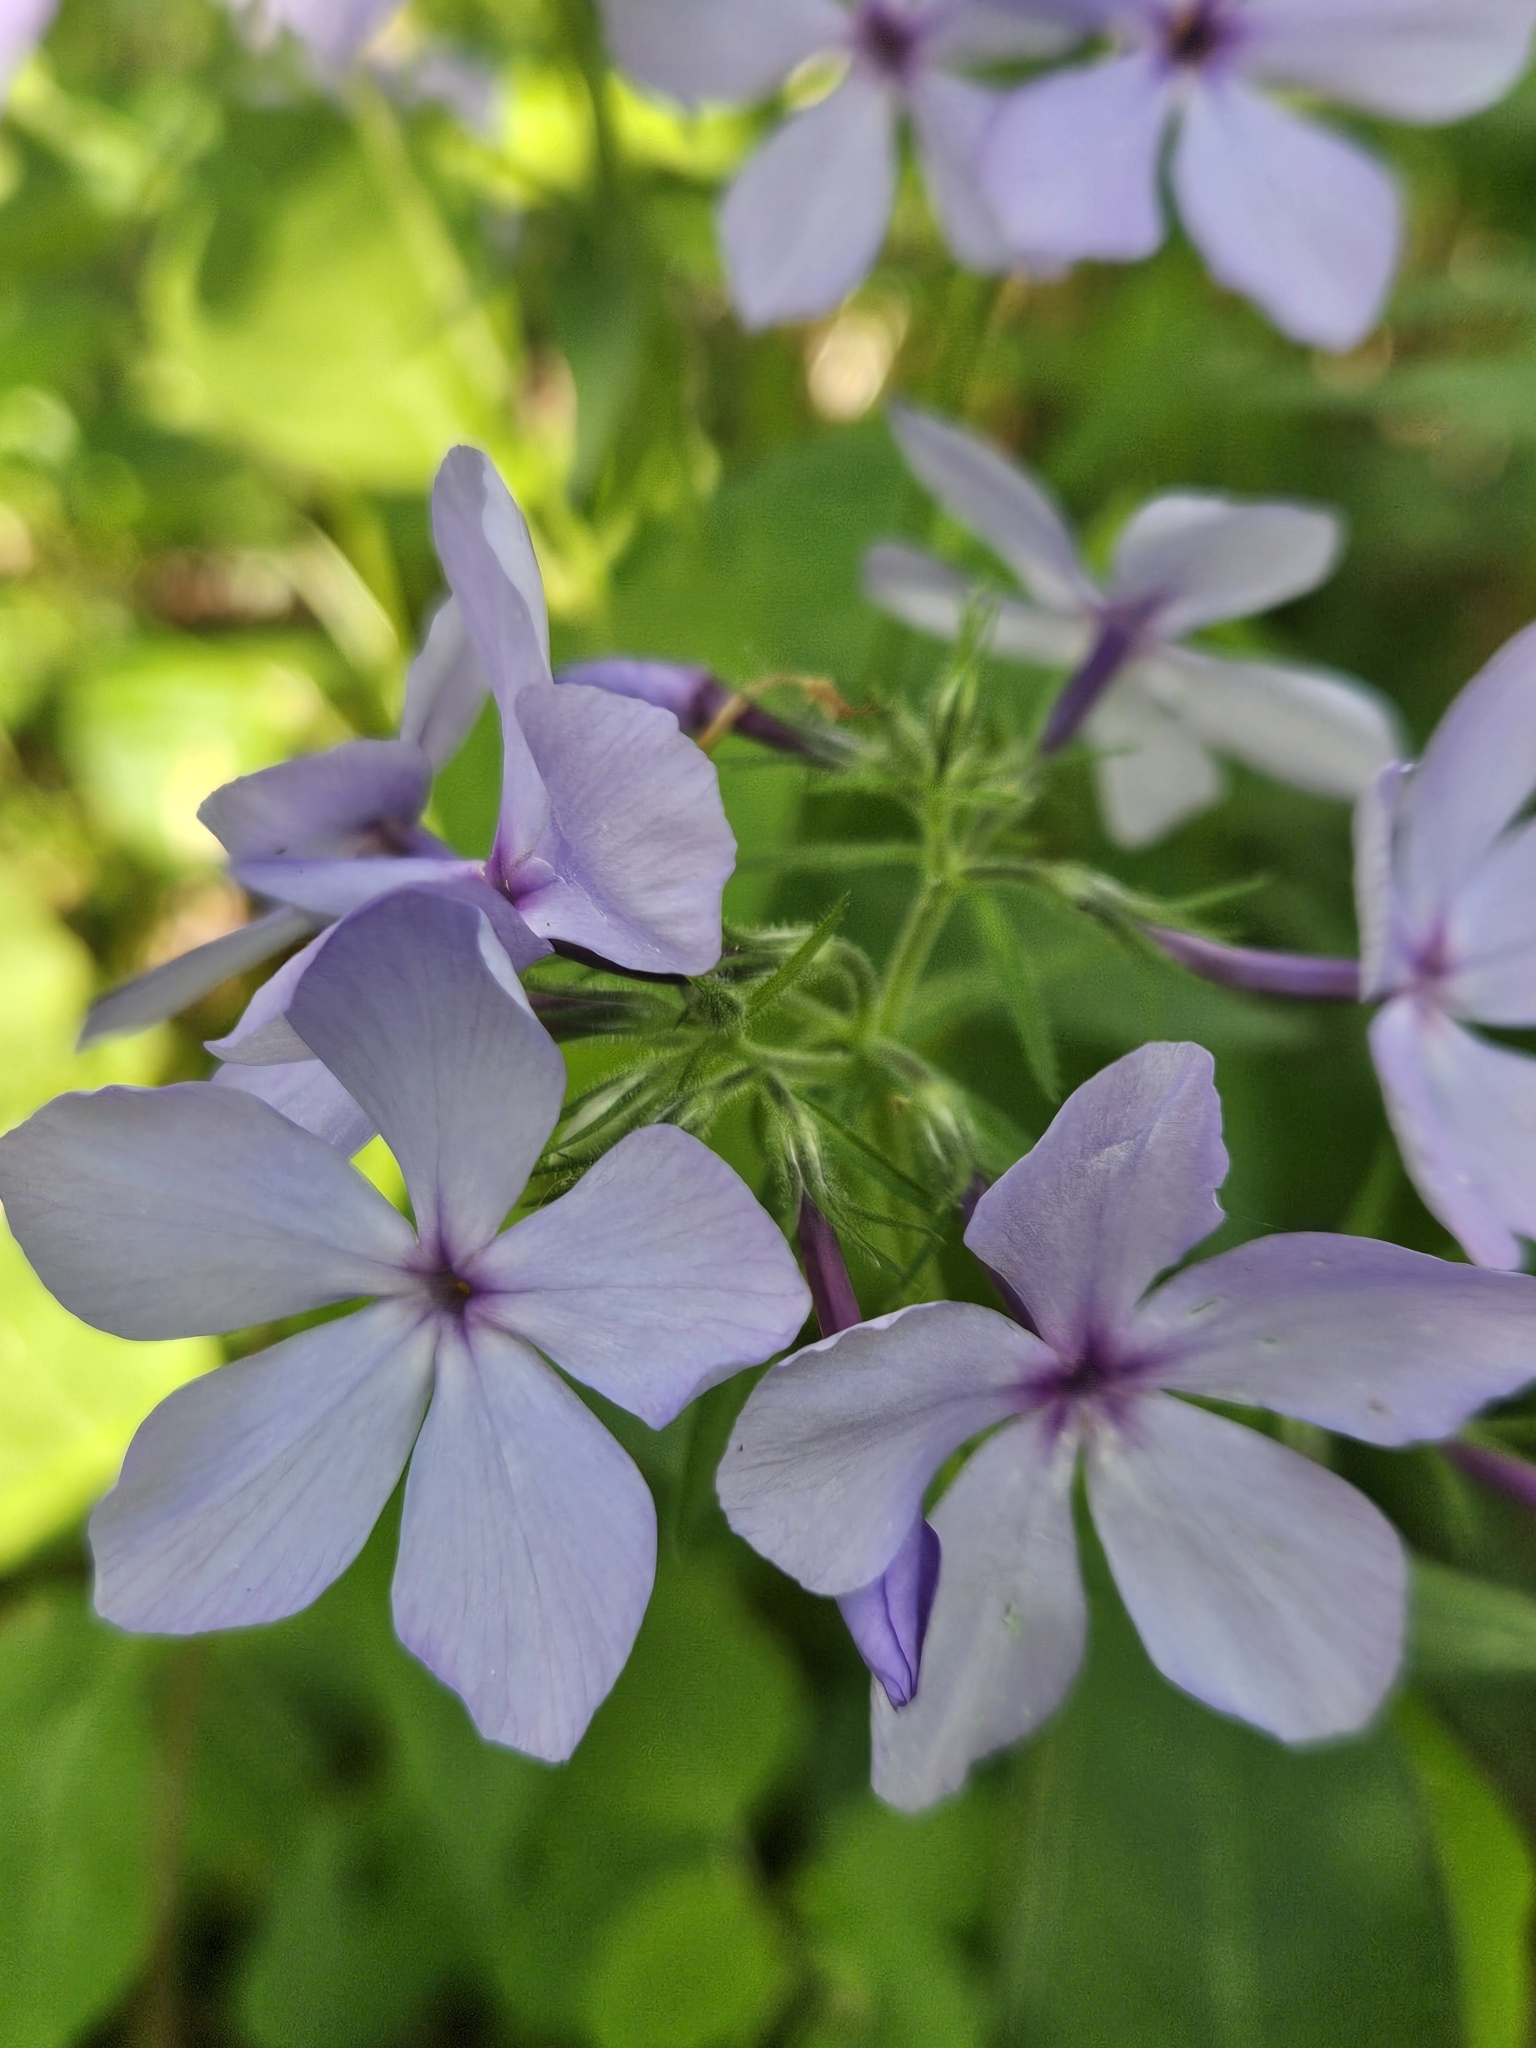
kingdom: Plantae
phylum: Tracheophyta
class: Magnoliopsida
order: Ericales
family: Polemoniaceae
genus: Phlox
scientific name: Phlox divaricata
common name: Blue phlox
